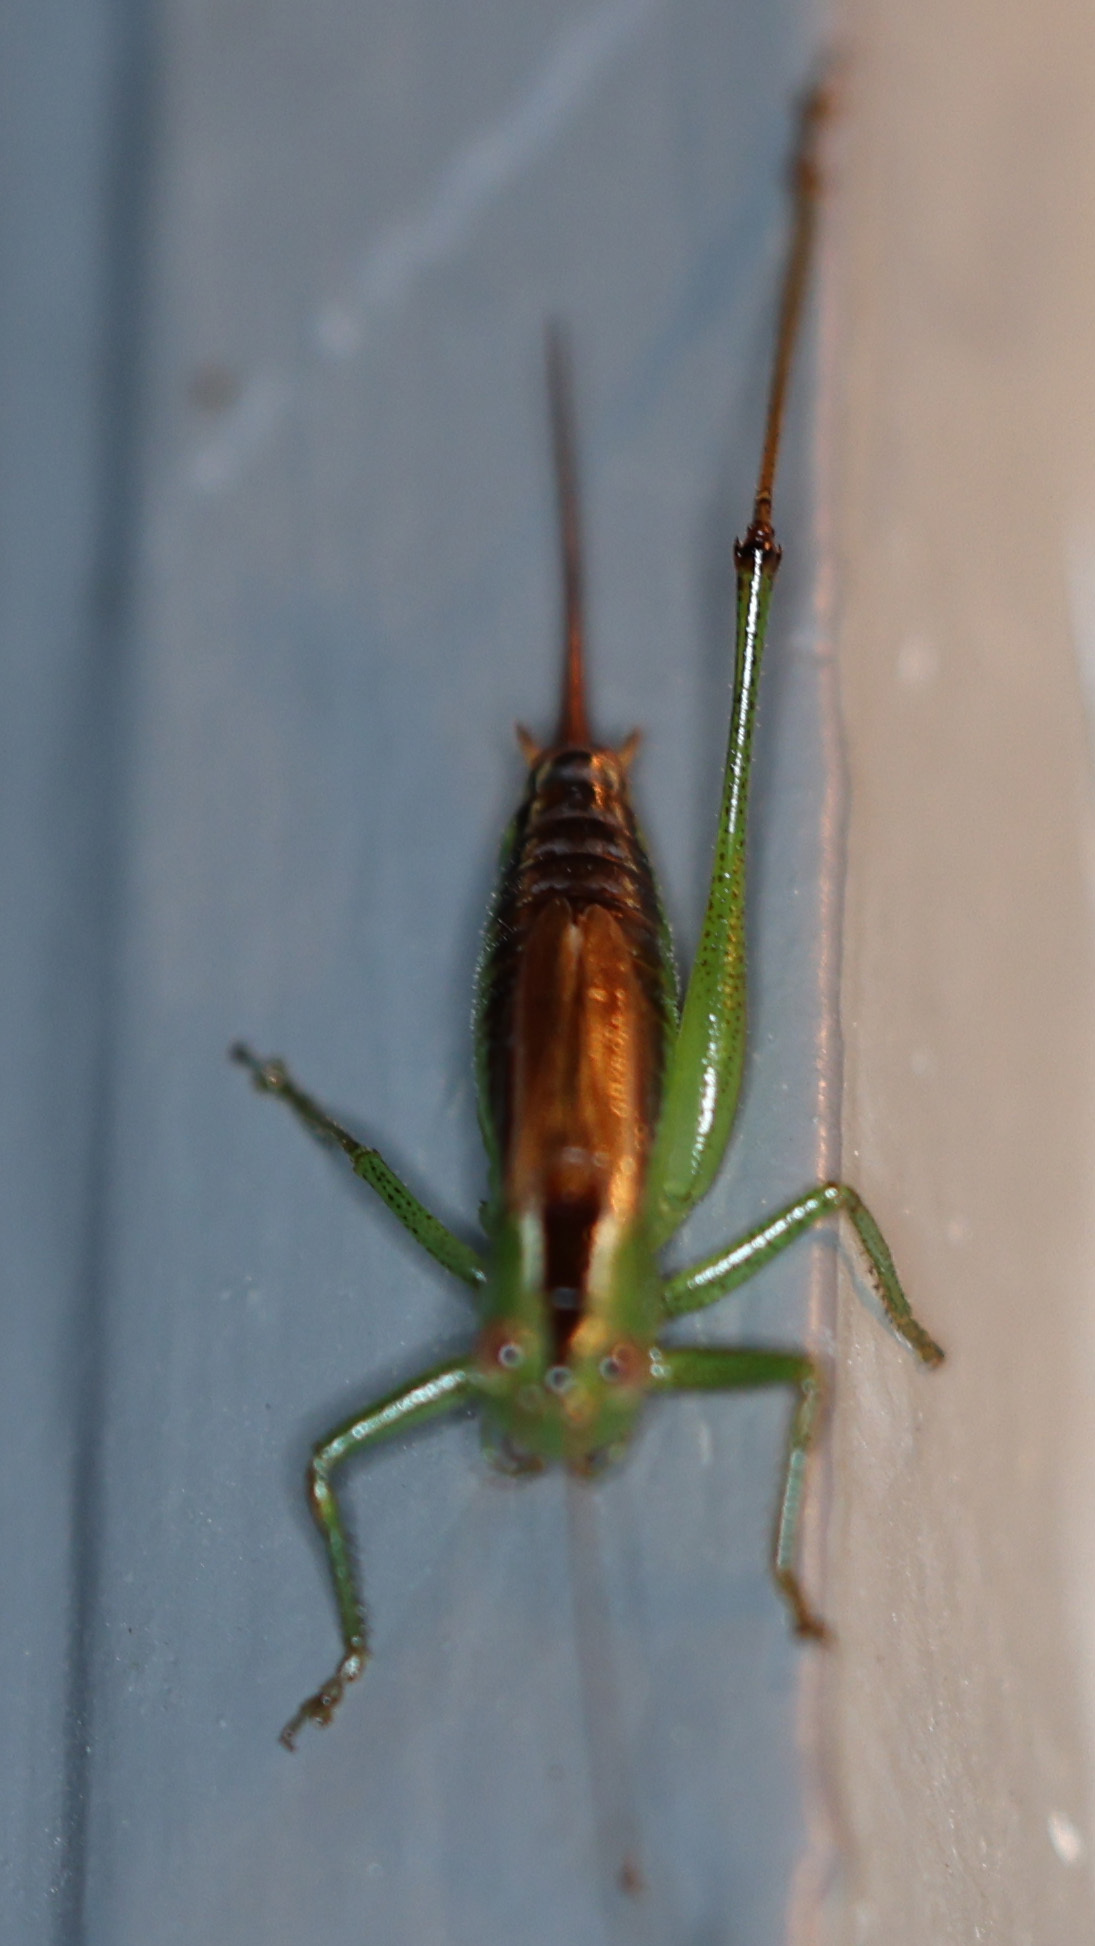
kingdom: Animalia
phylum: Arthropoda
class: Insecta
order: Orthoptera
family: Tettigoniidae
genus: Conocephalus
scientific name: Conocephalus brevipennis
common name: Short-winged meadow katydid
